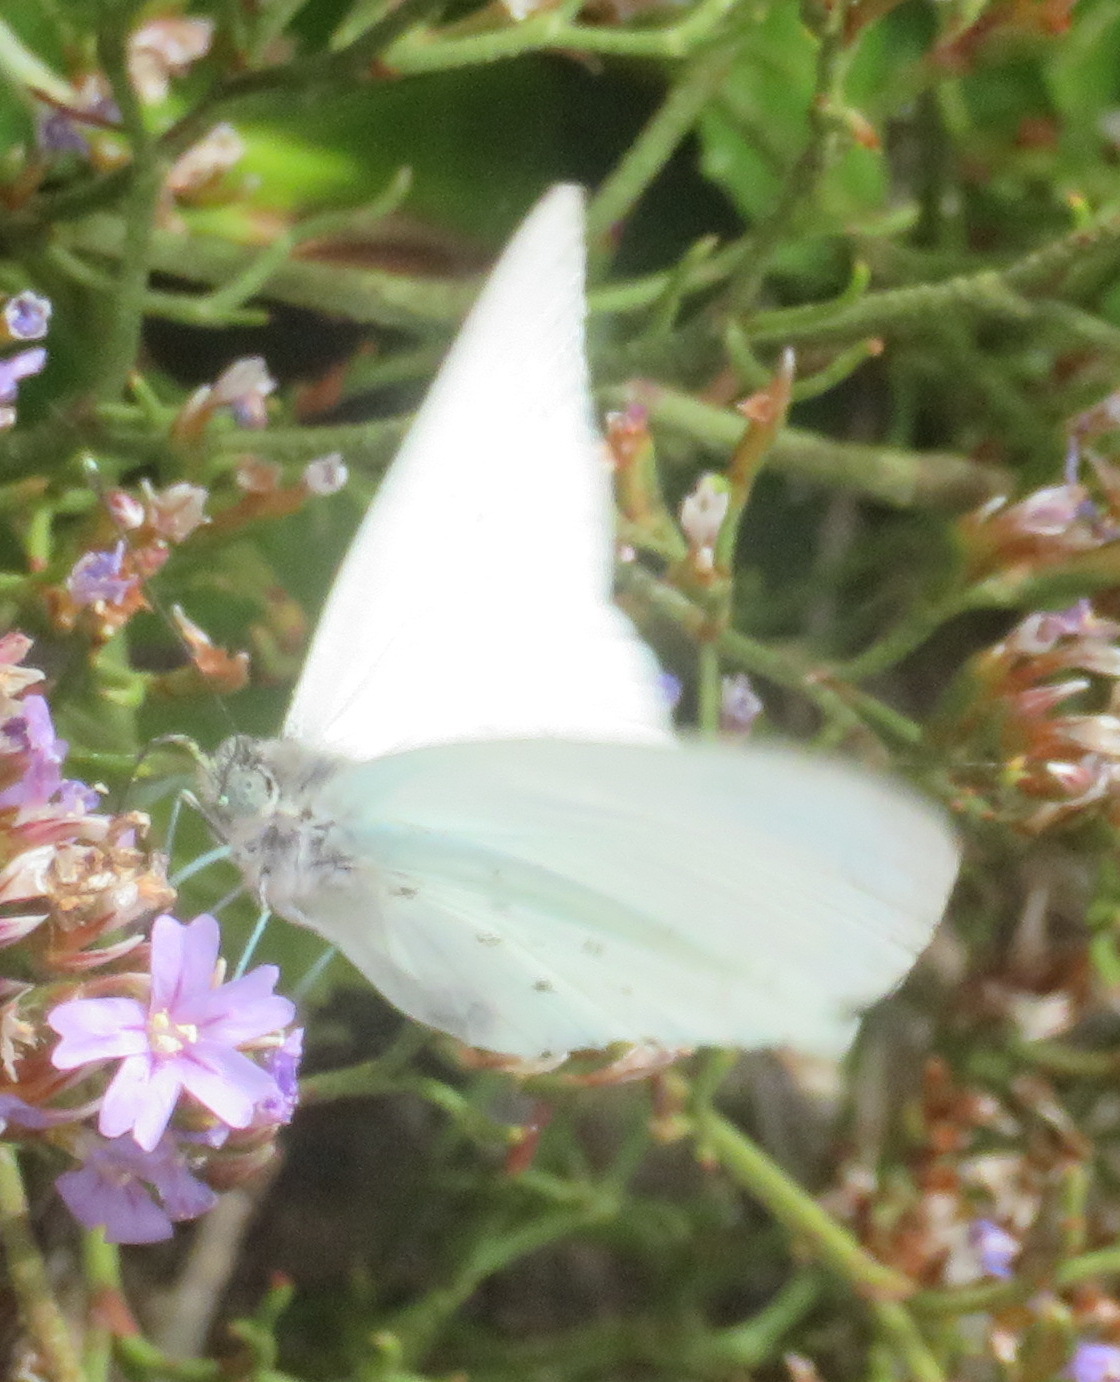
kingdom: Animalia
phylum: Arthropoda
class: Insecta
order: Lepidoptera
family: Pieridae
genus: Dixeia
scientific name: Dixeia charina
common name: African small white
